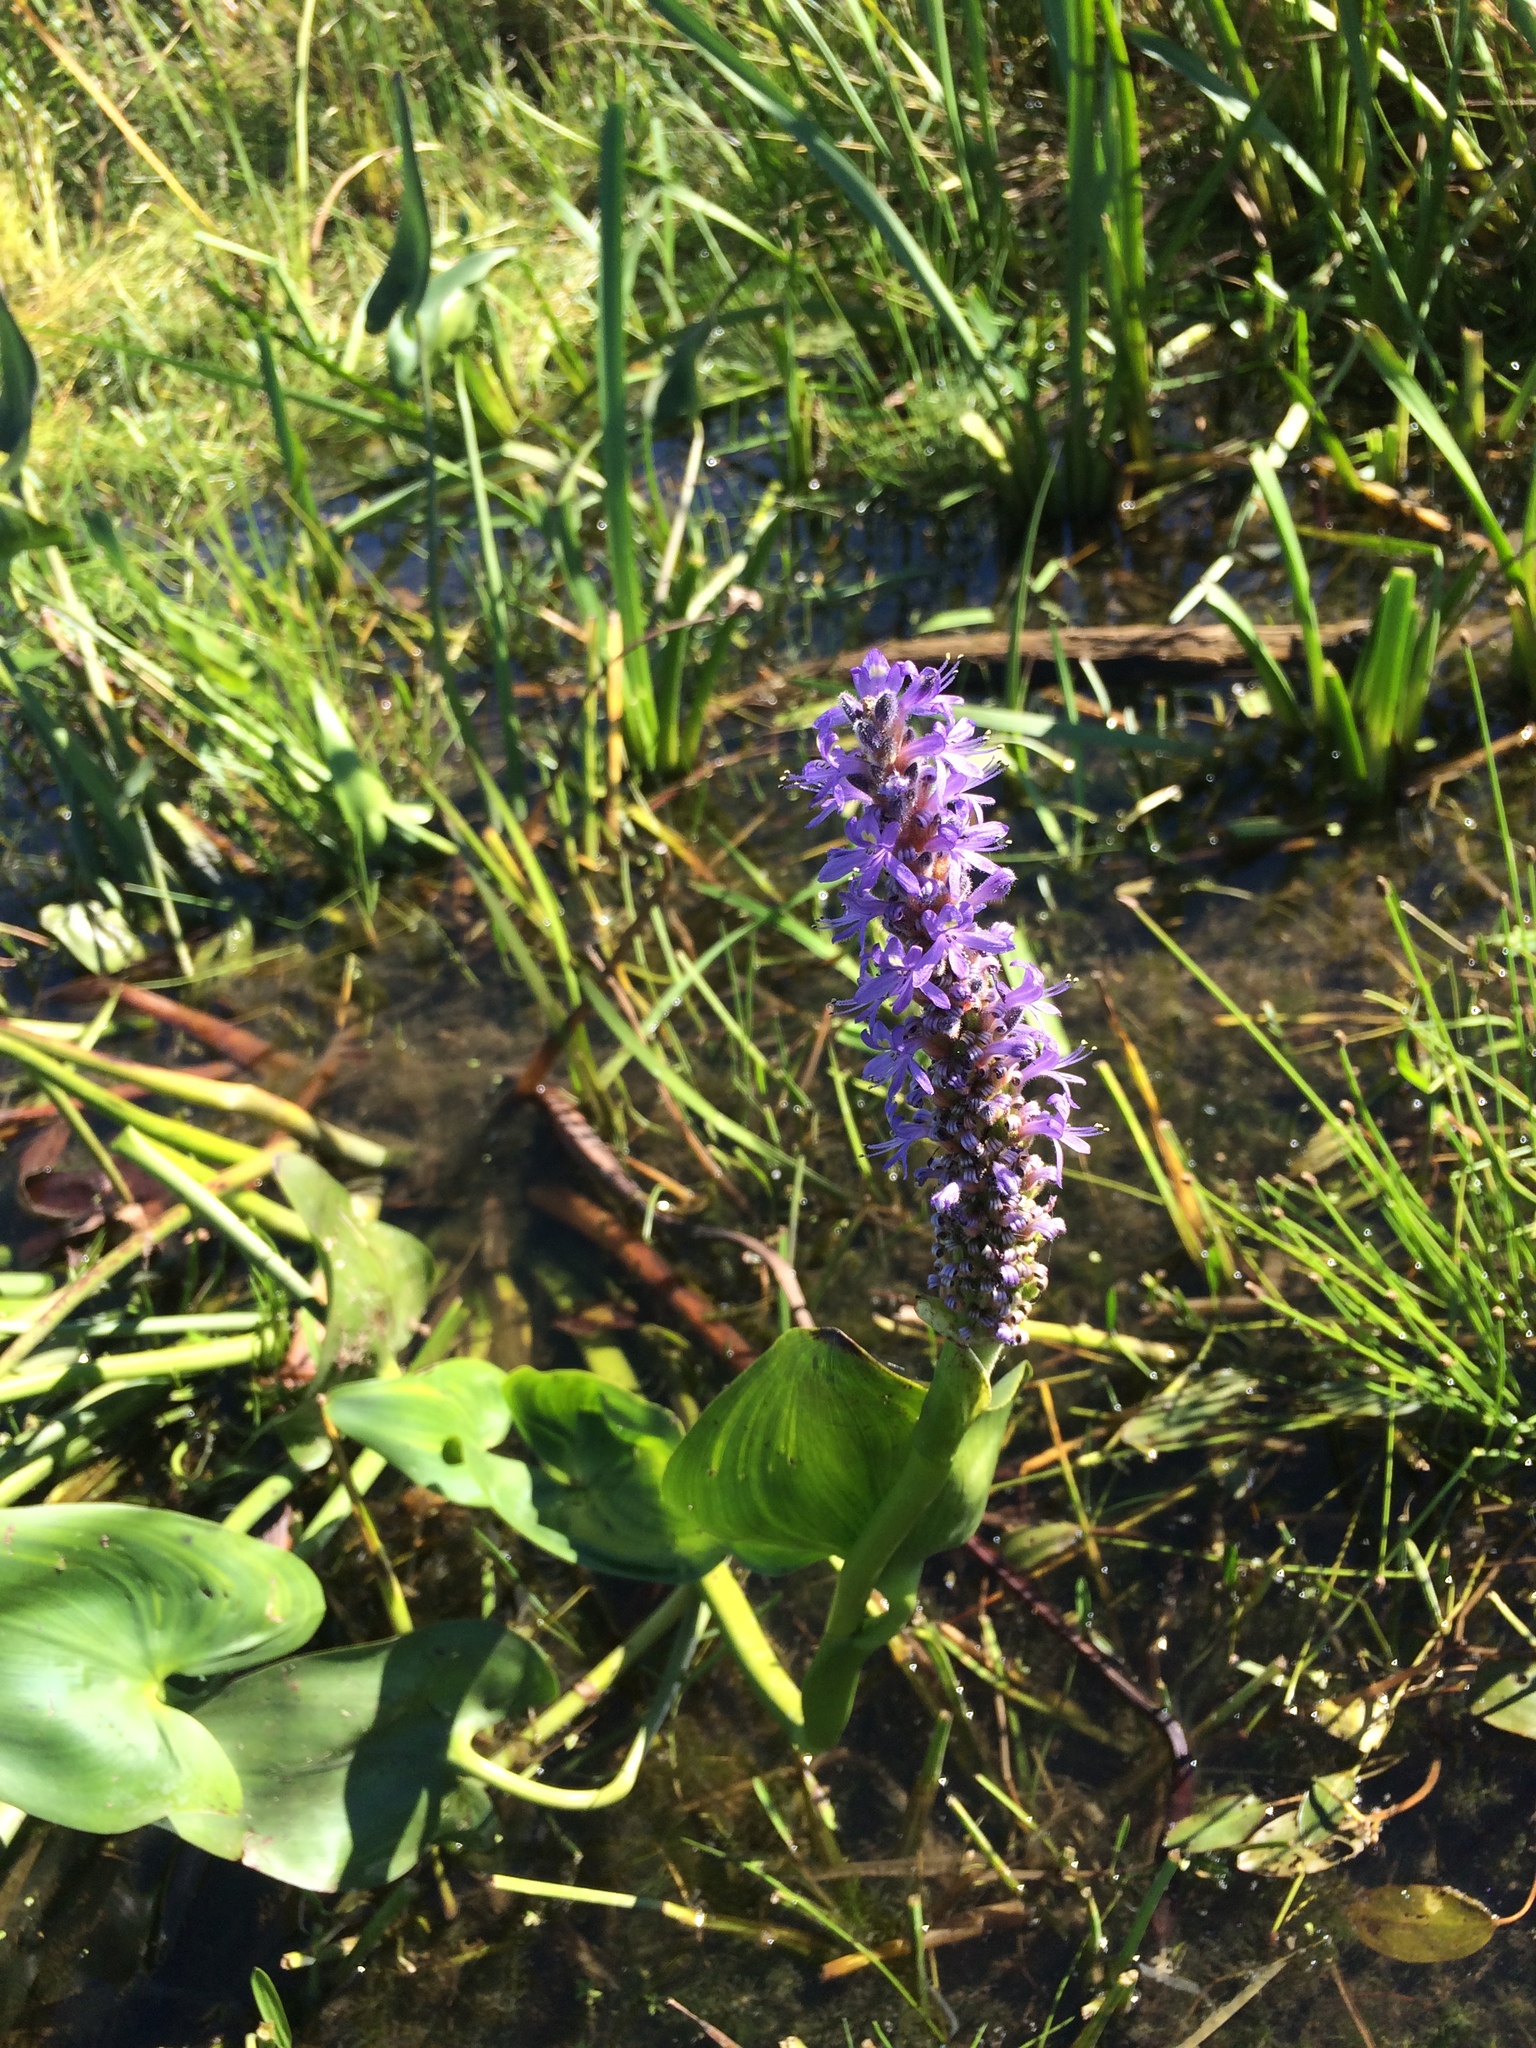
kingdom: Plantae
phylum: Tracheophyta
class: Liliopsida
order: Commelinales
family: Pontederiaceae
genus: Pontederia
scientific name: Pontederia cordata
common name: Pickerelweed
